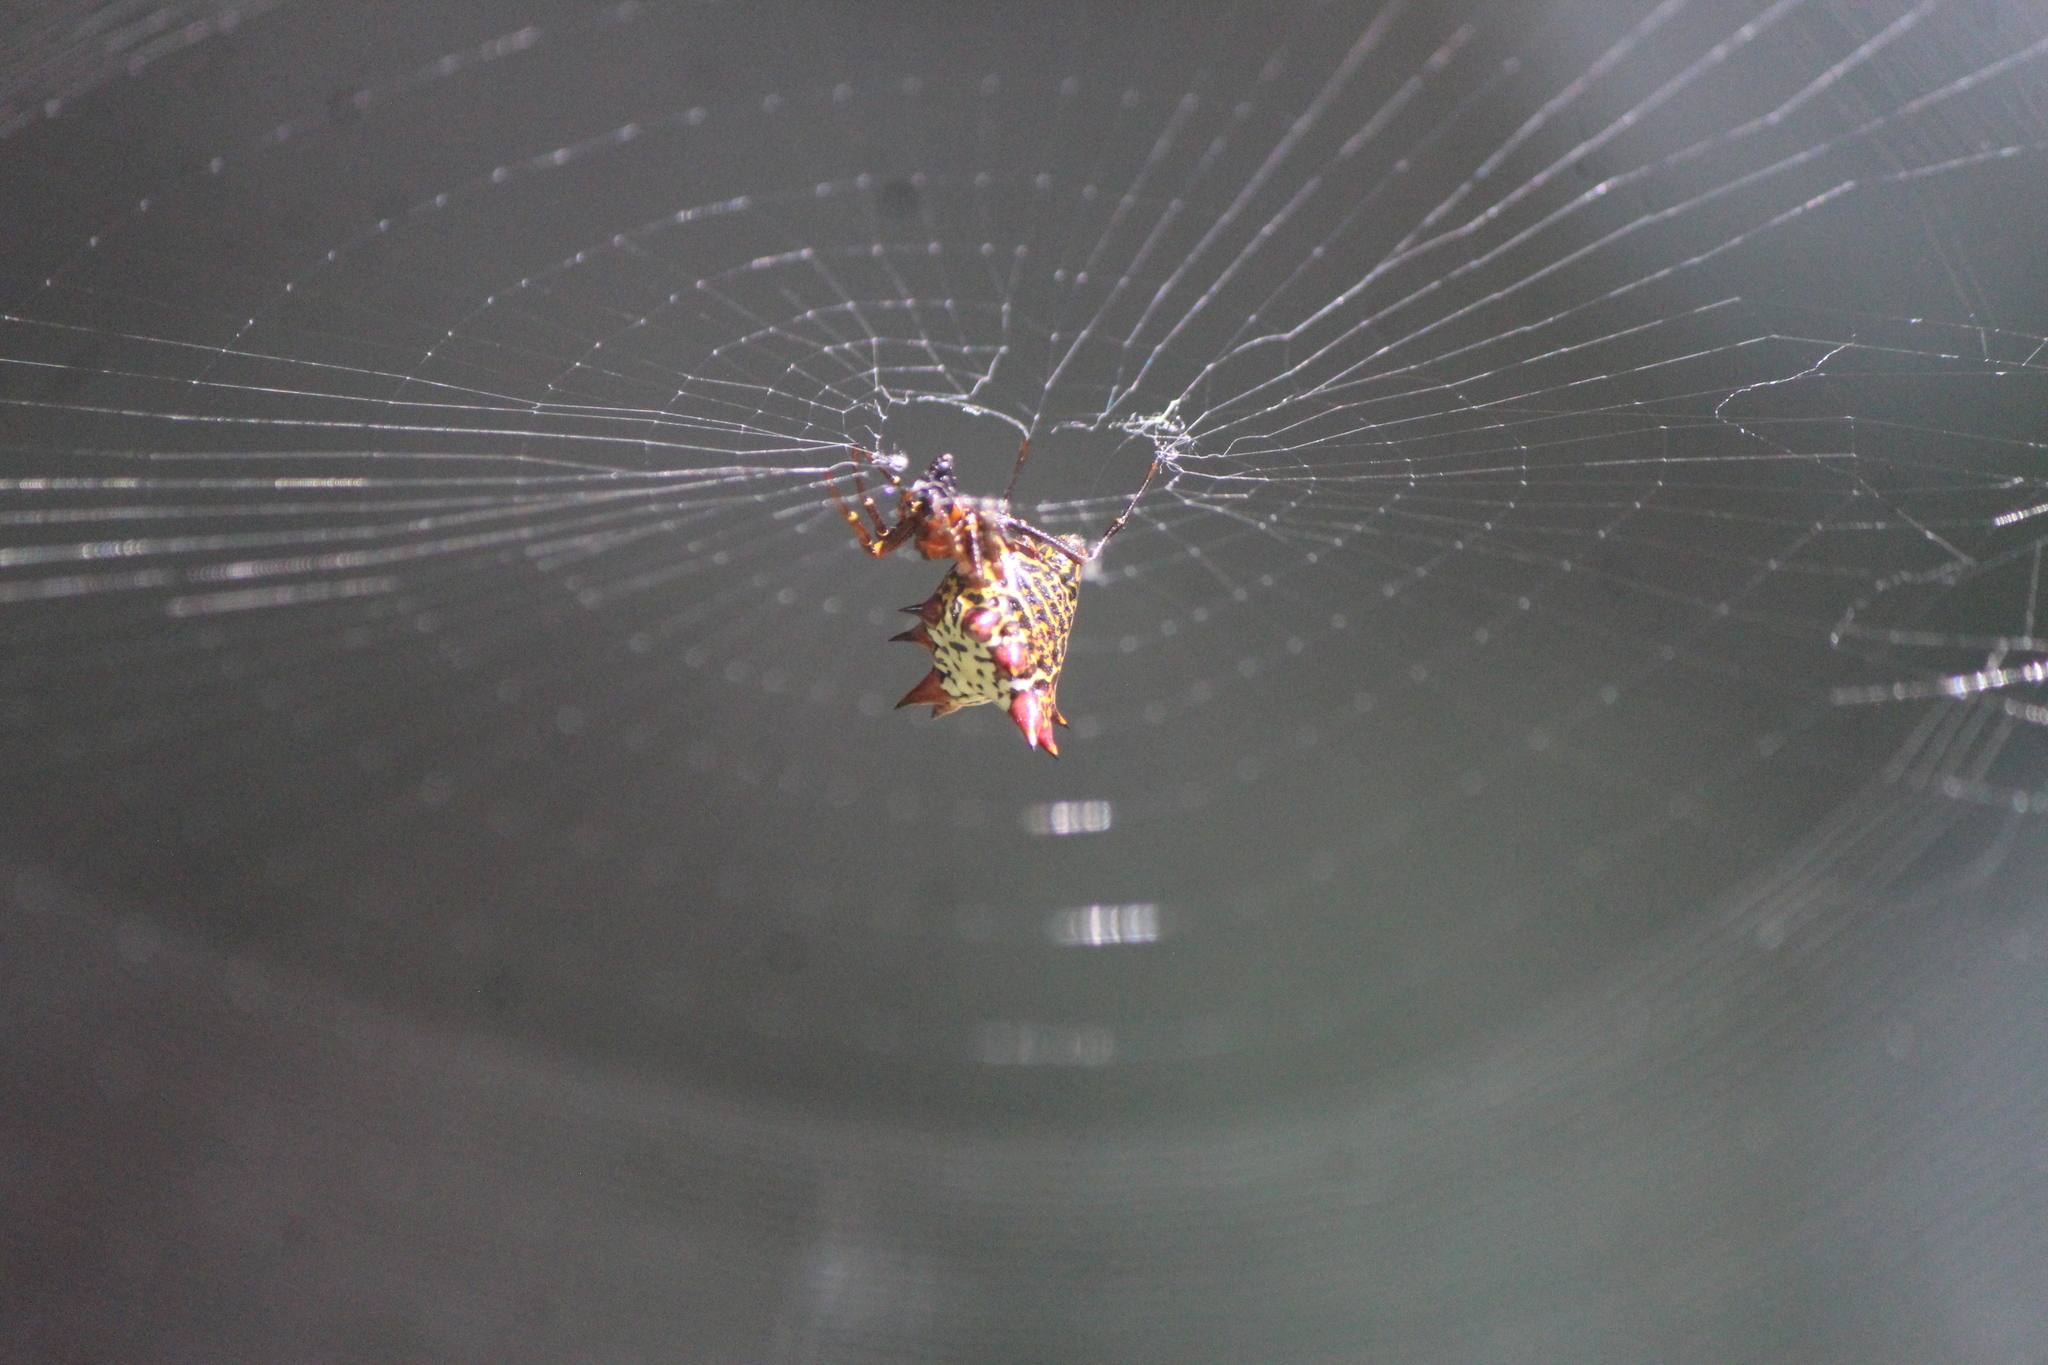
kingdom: Animalia
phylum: Arthropoda
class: Arachnida
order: Araneae
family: Araneidae
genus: Micrathena
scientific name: Micrathena gracilis
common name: Orb weavers
